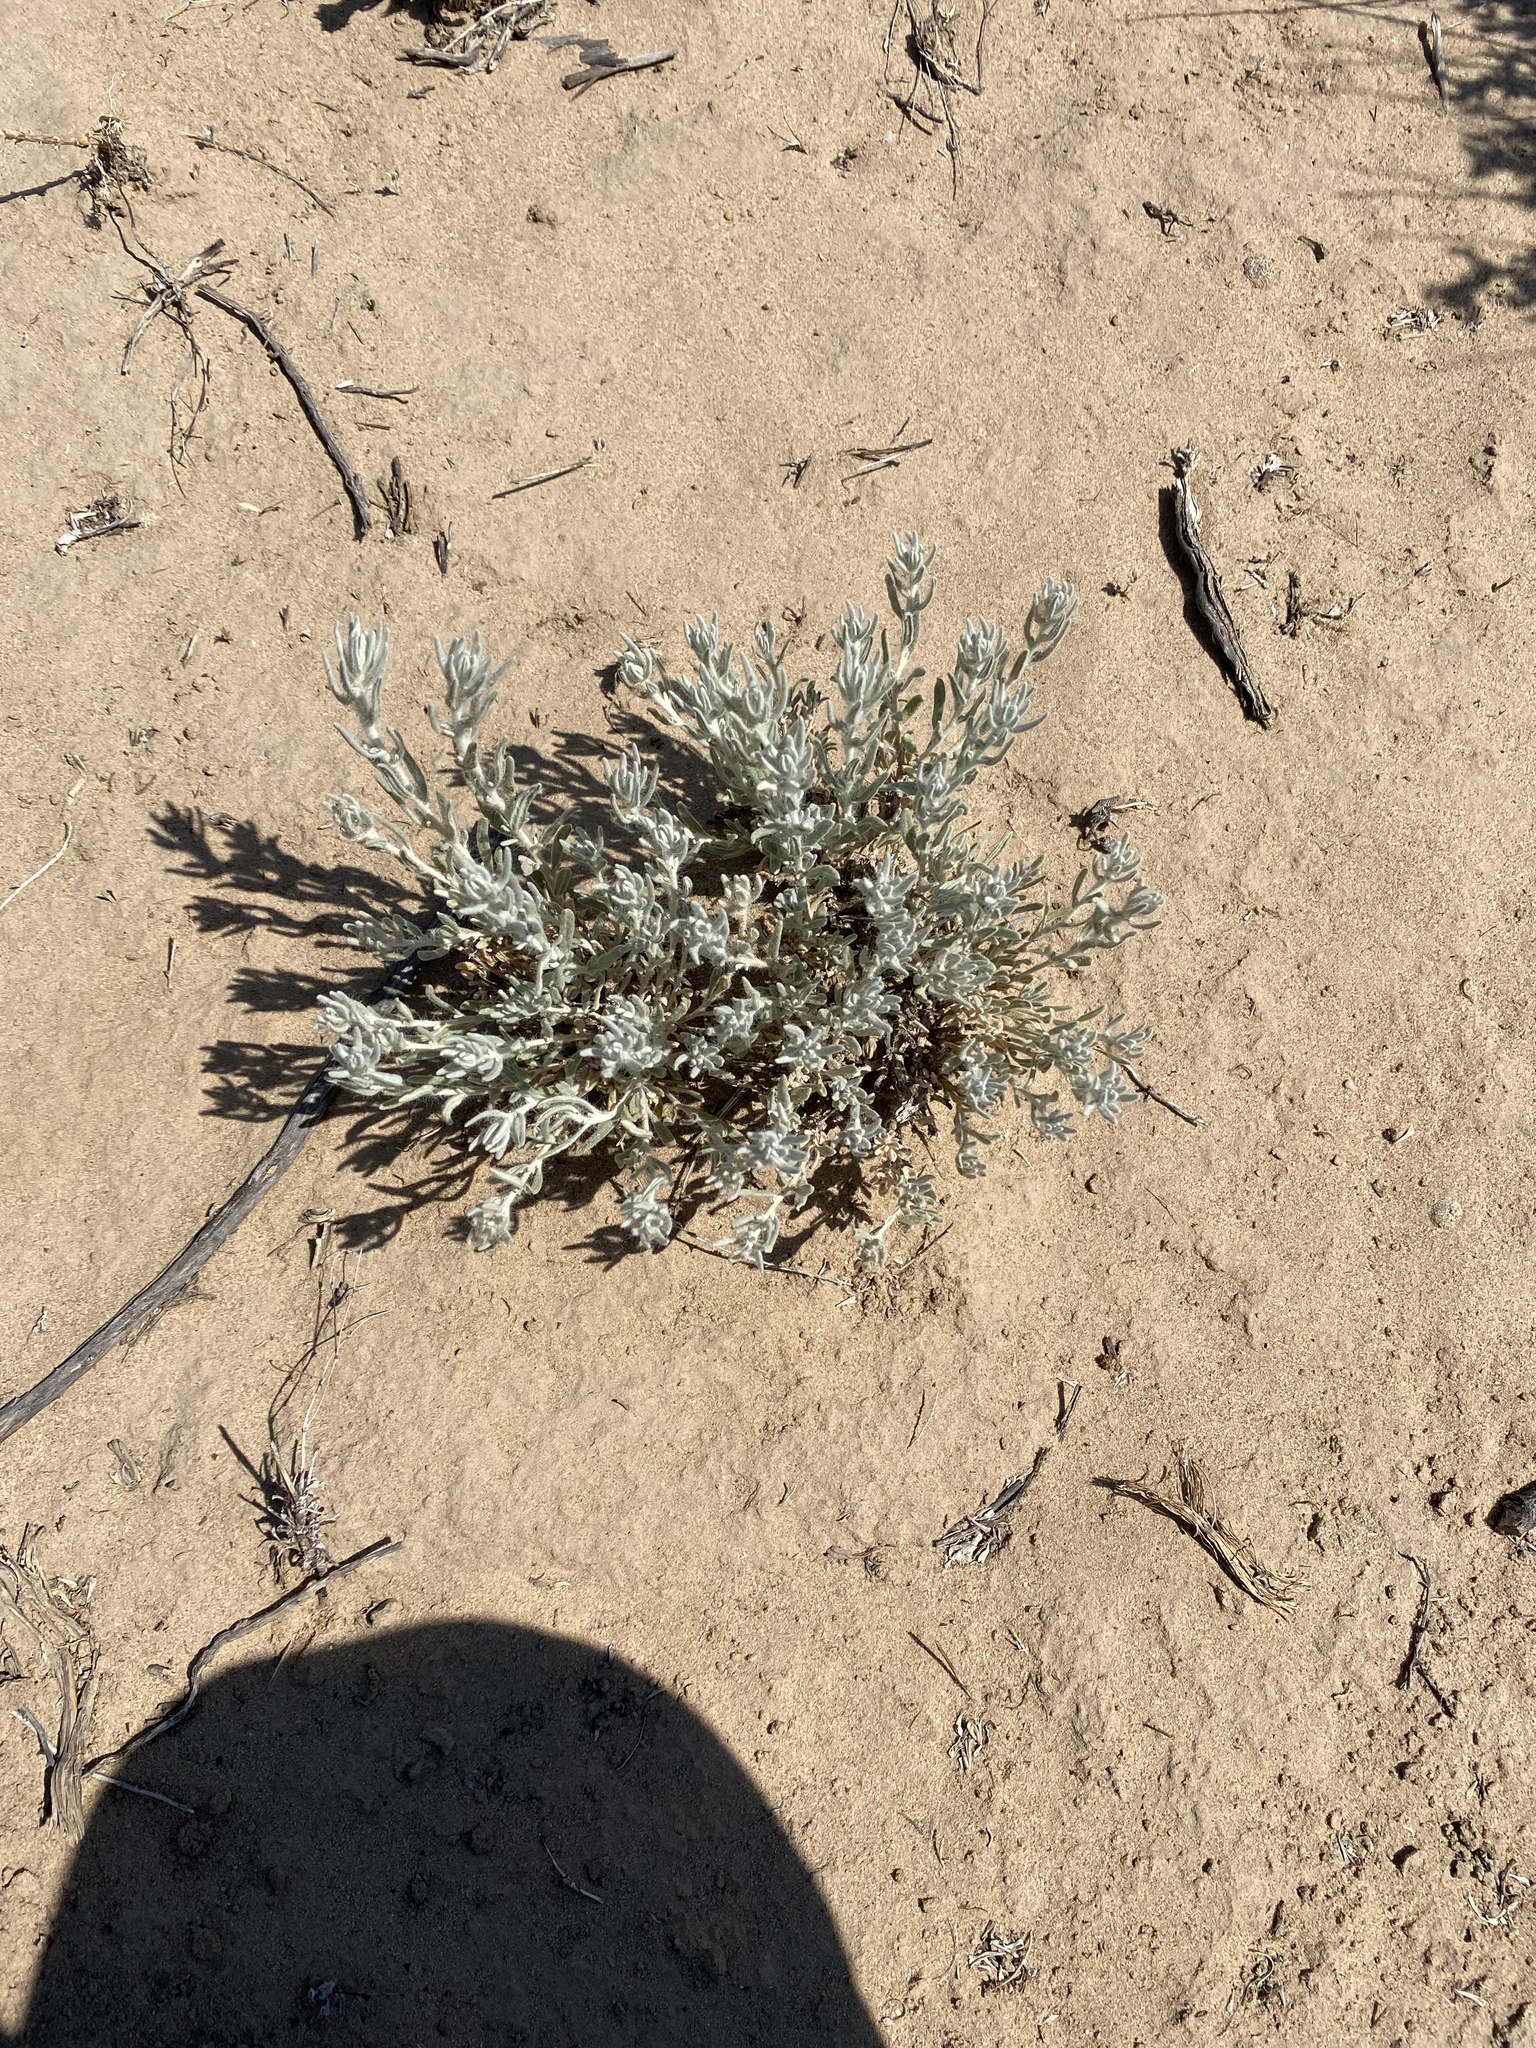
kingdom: Plantae
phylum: Tracheophyta
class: Magnoliopsida
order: Caryophyllales
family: Amaranthaceae
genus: Krascheninnikovia
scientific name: Krascheninnikovia lanata
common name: Winterfat
